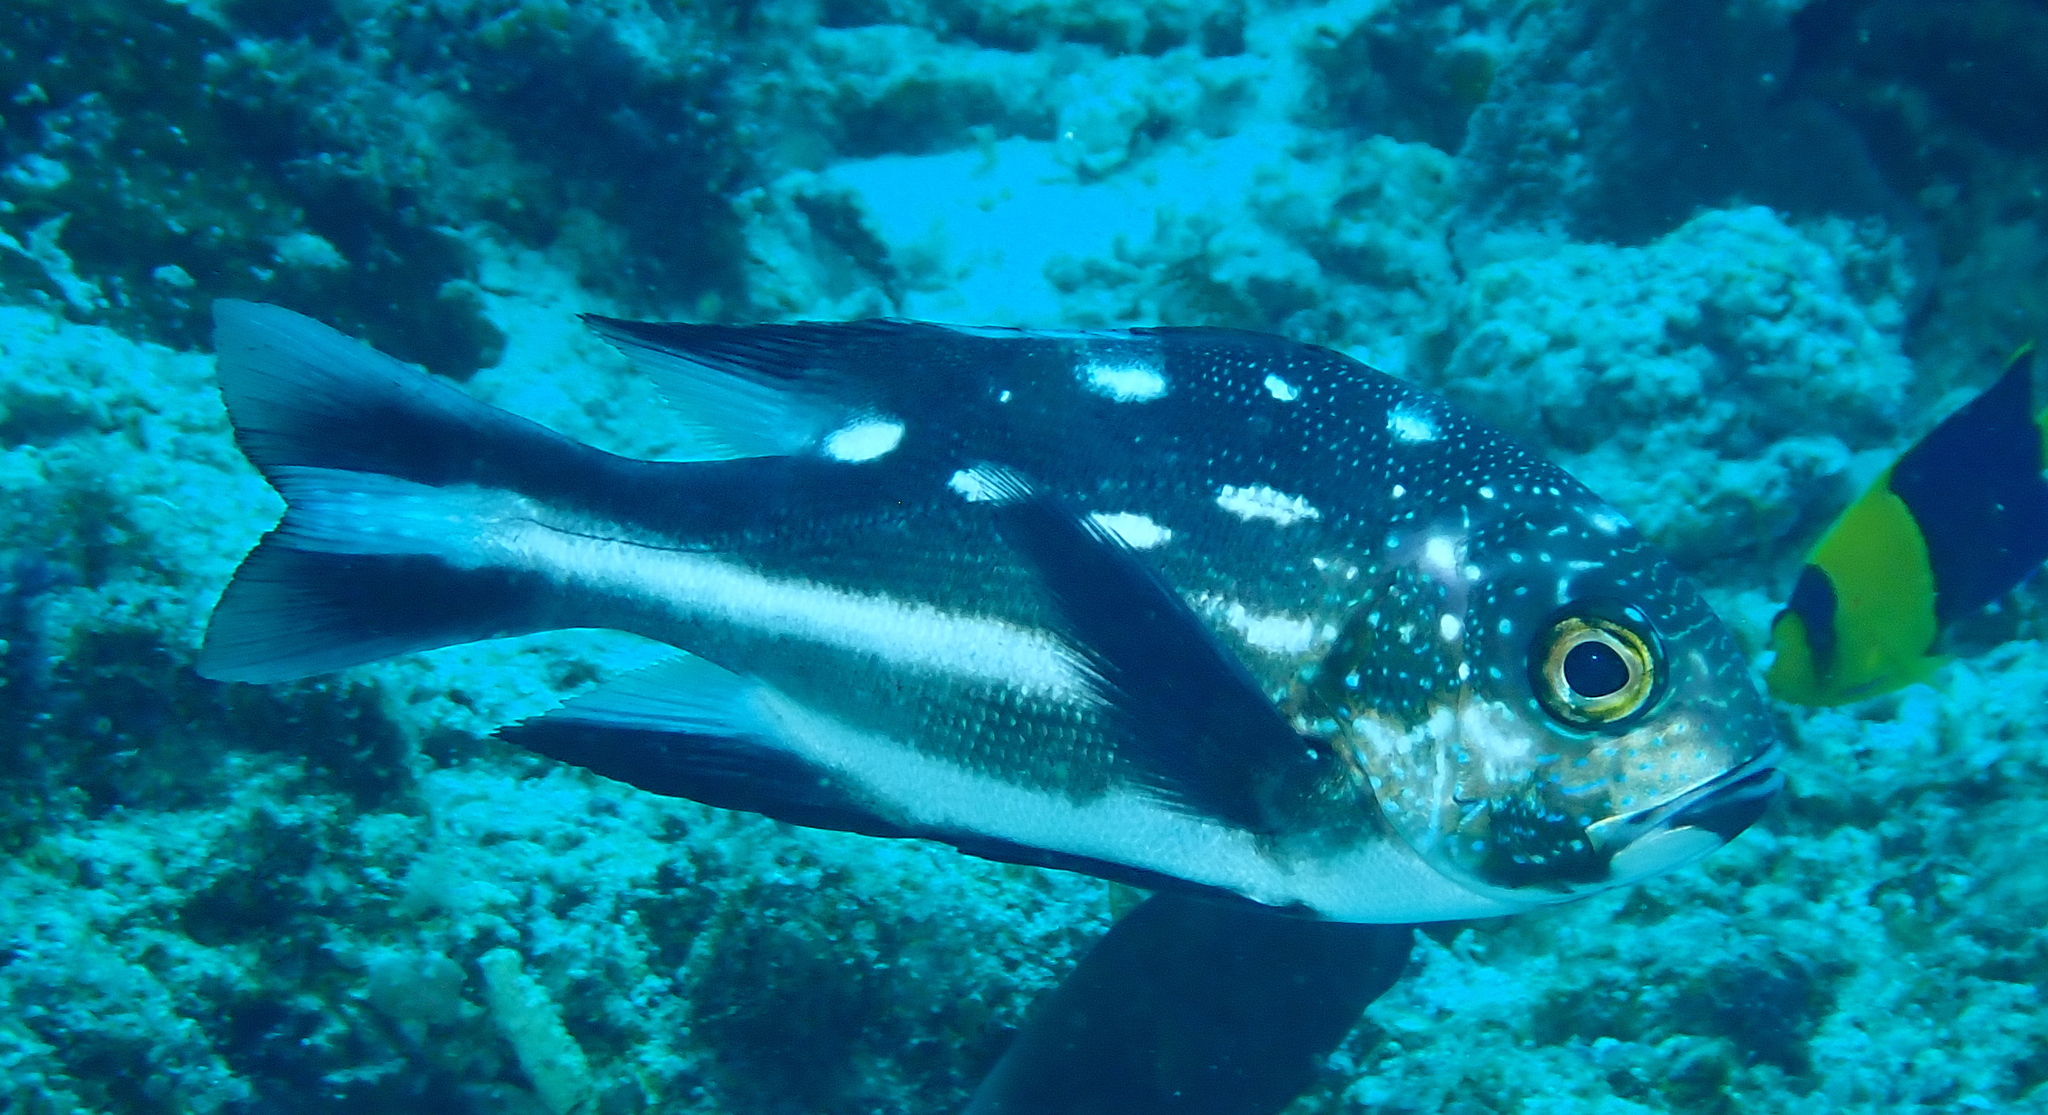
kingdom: Animalia
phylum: Chordata
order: Perciformes
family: Lutjanidae
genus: Macolor
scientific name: Macolor macularis
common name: Midnight snapper
